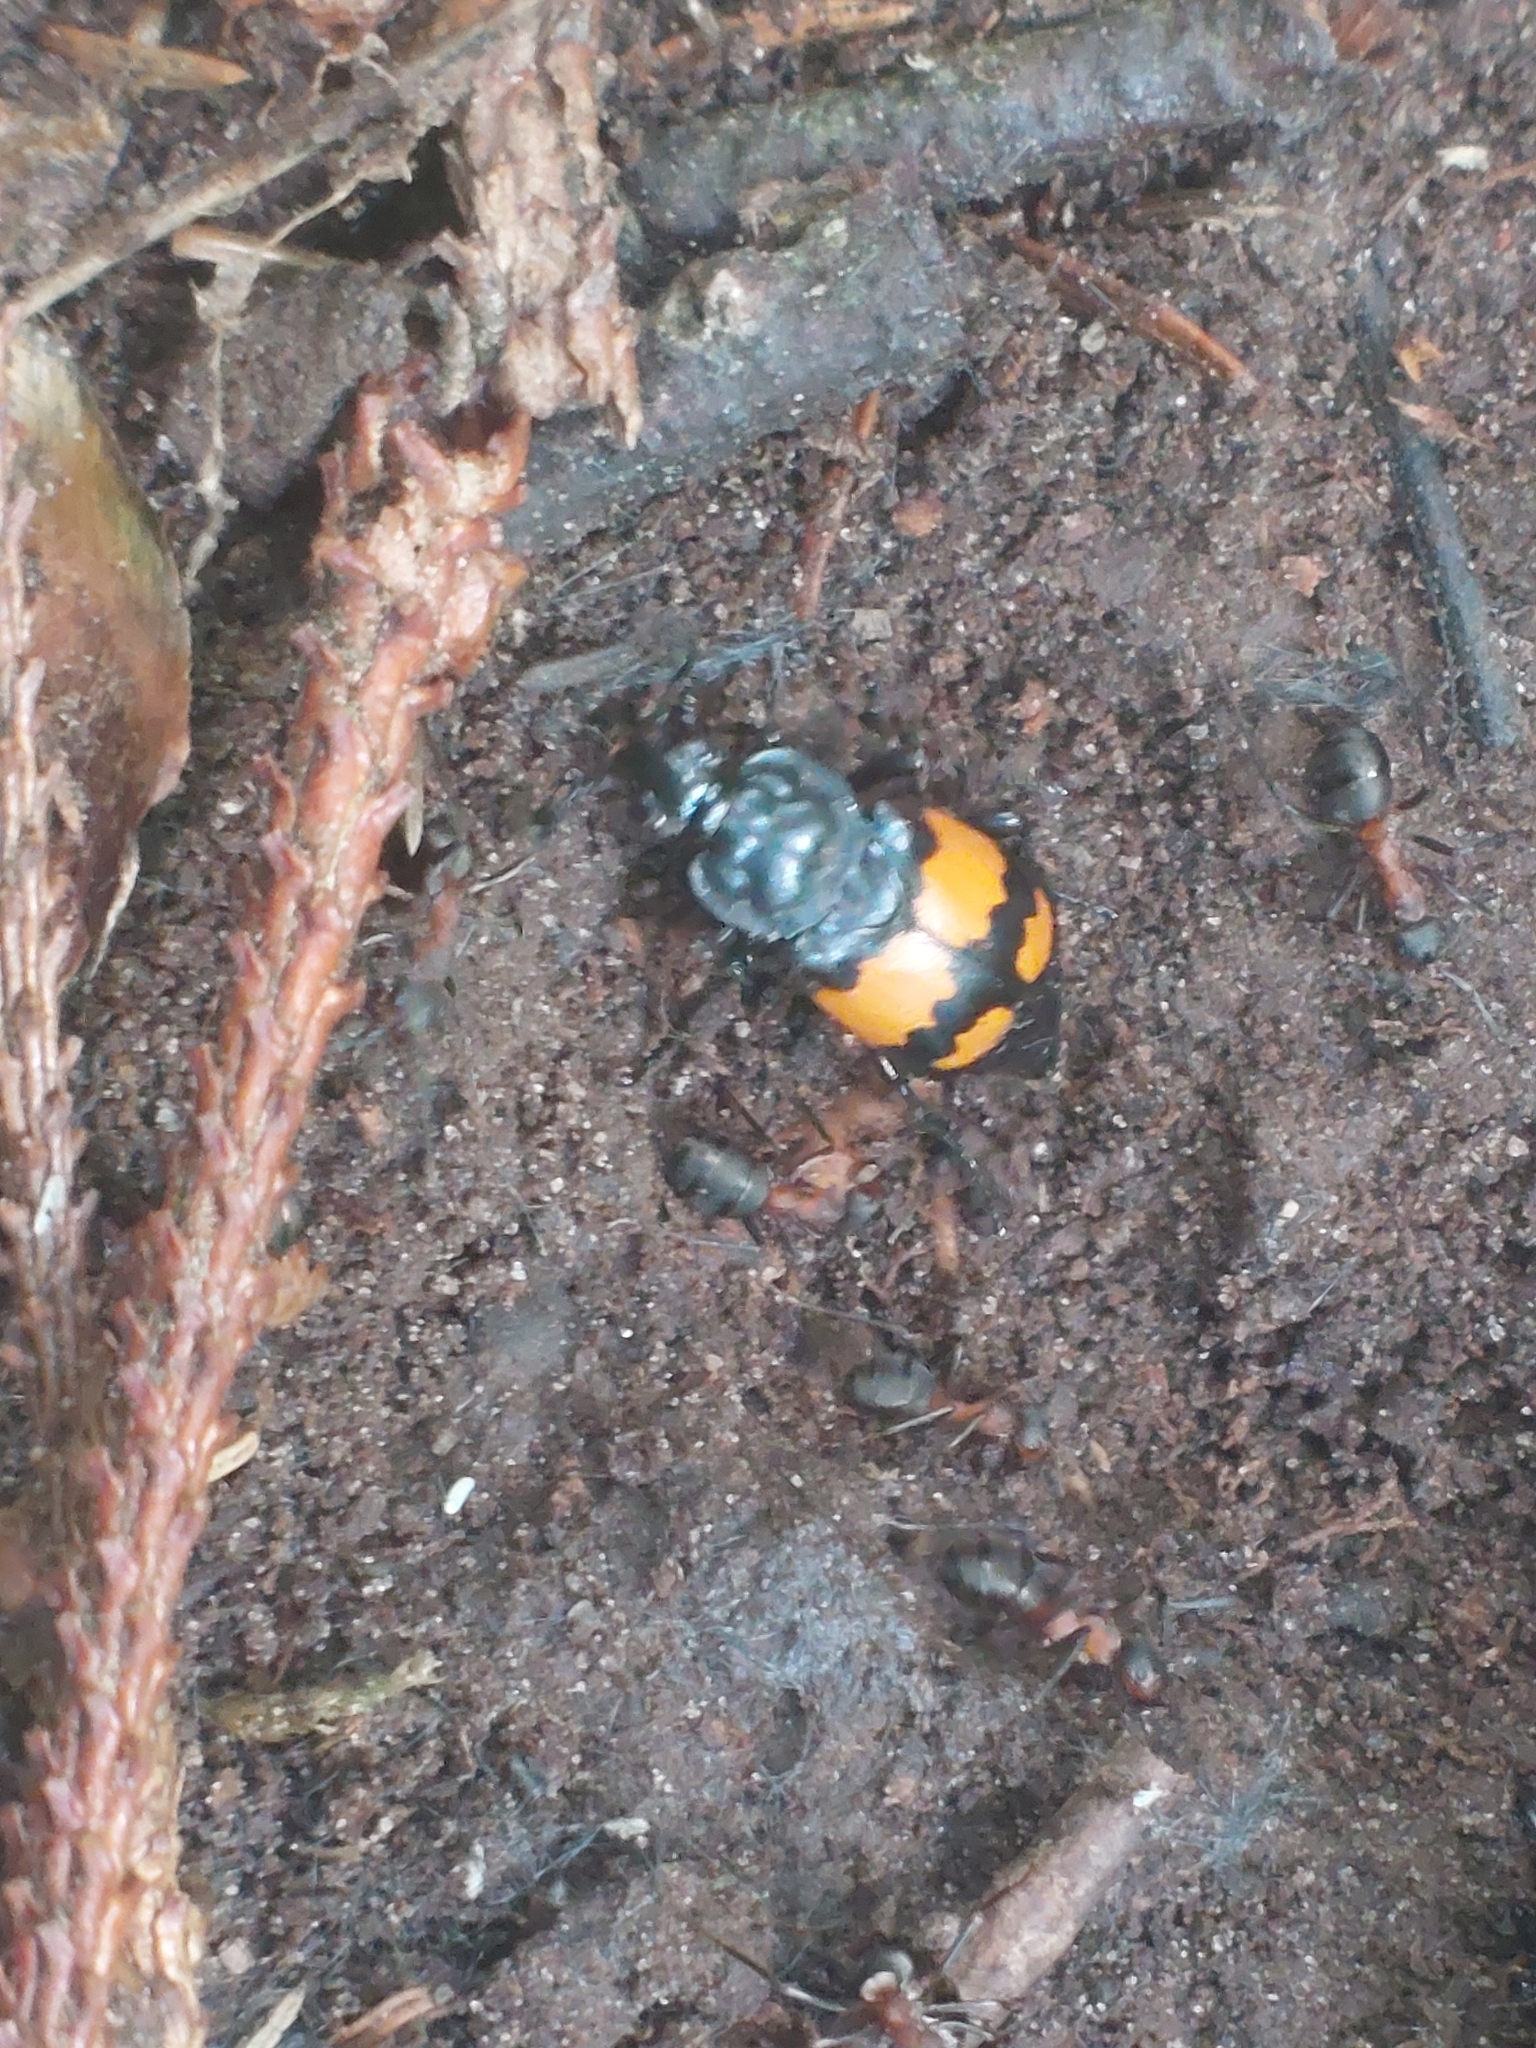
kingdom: Animalia
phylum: Arthropoda
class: Insecta
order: Coleoptera
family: Staphylinidae
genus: Nicrophorus
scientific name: Nicrophorus vespilloides
